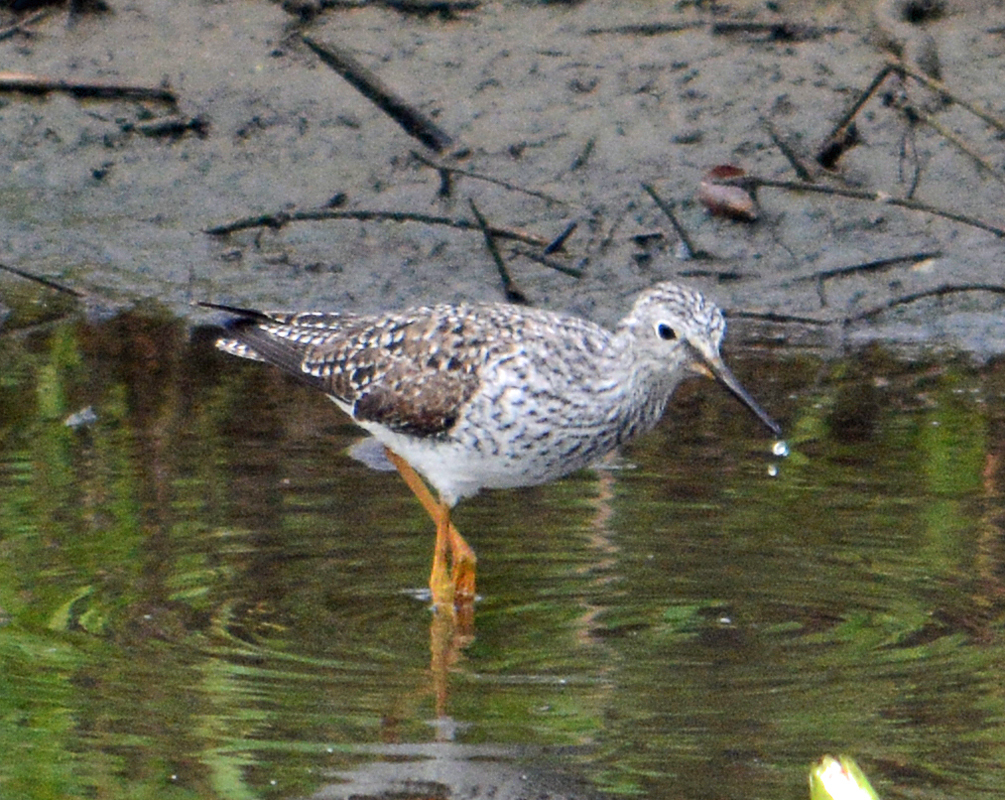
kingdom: Animalia
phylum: Chordata
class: Aves
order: Charadriiformes
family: Scolopacidae
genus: Tringa
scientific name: Tringa flavipes
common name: Lesser yellowlegs
